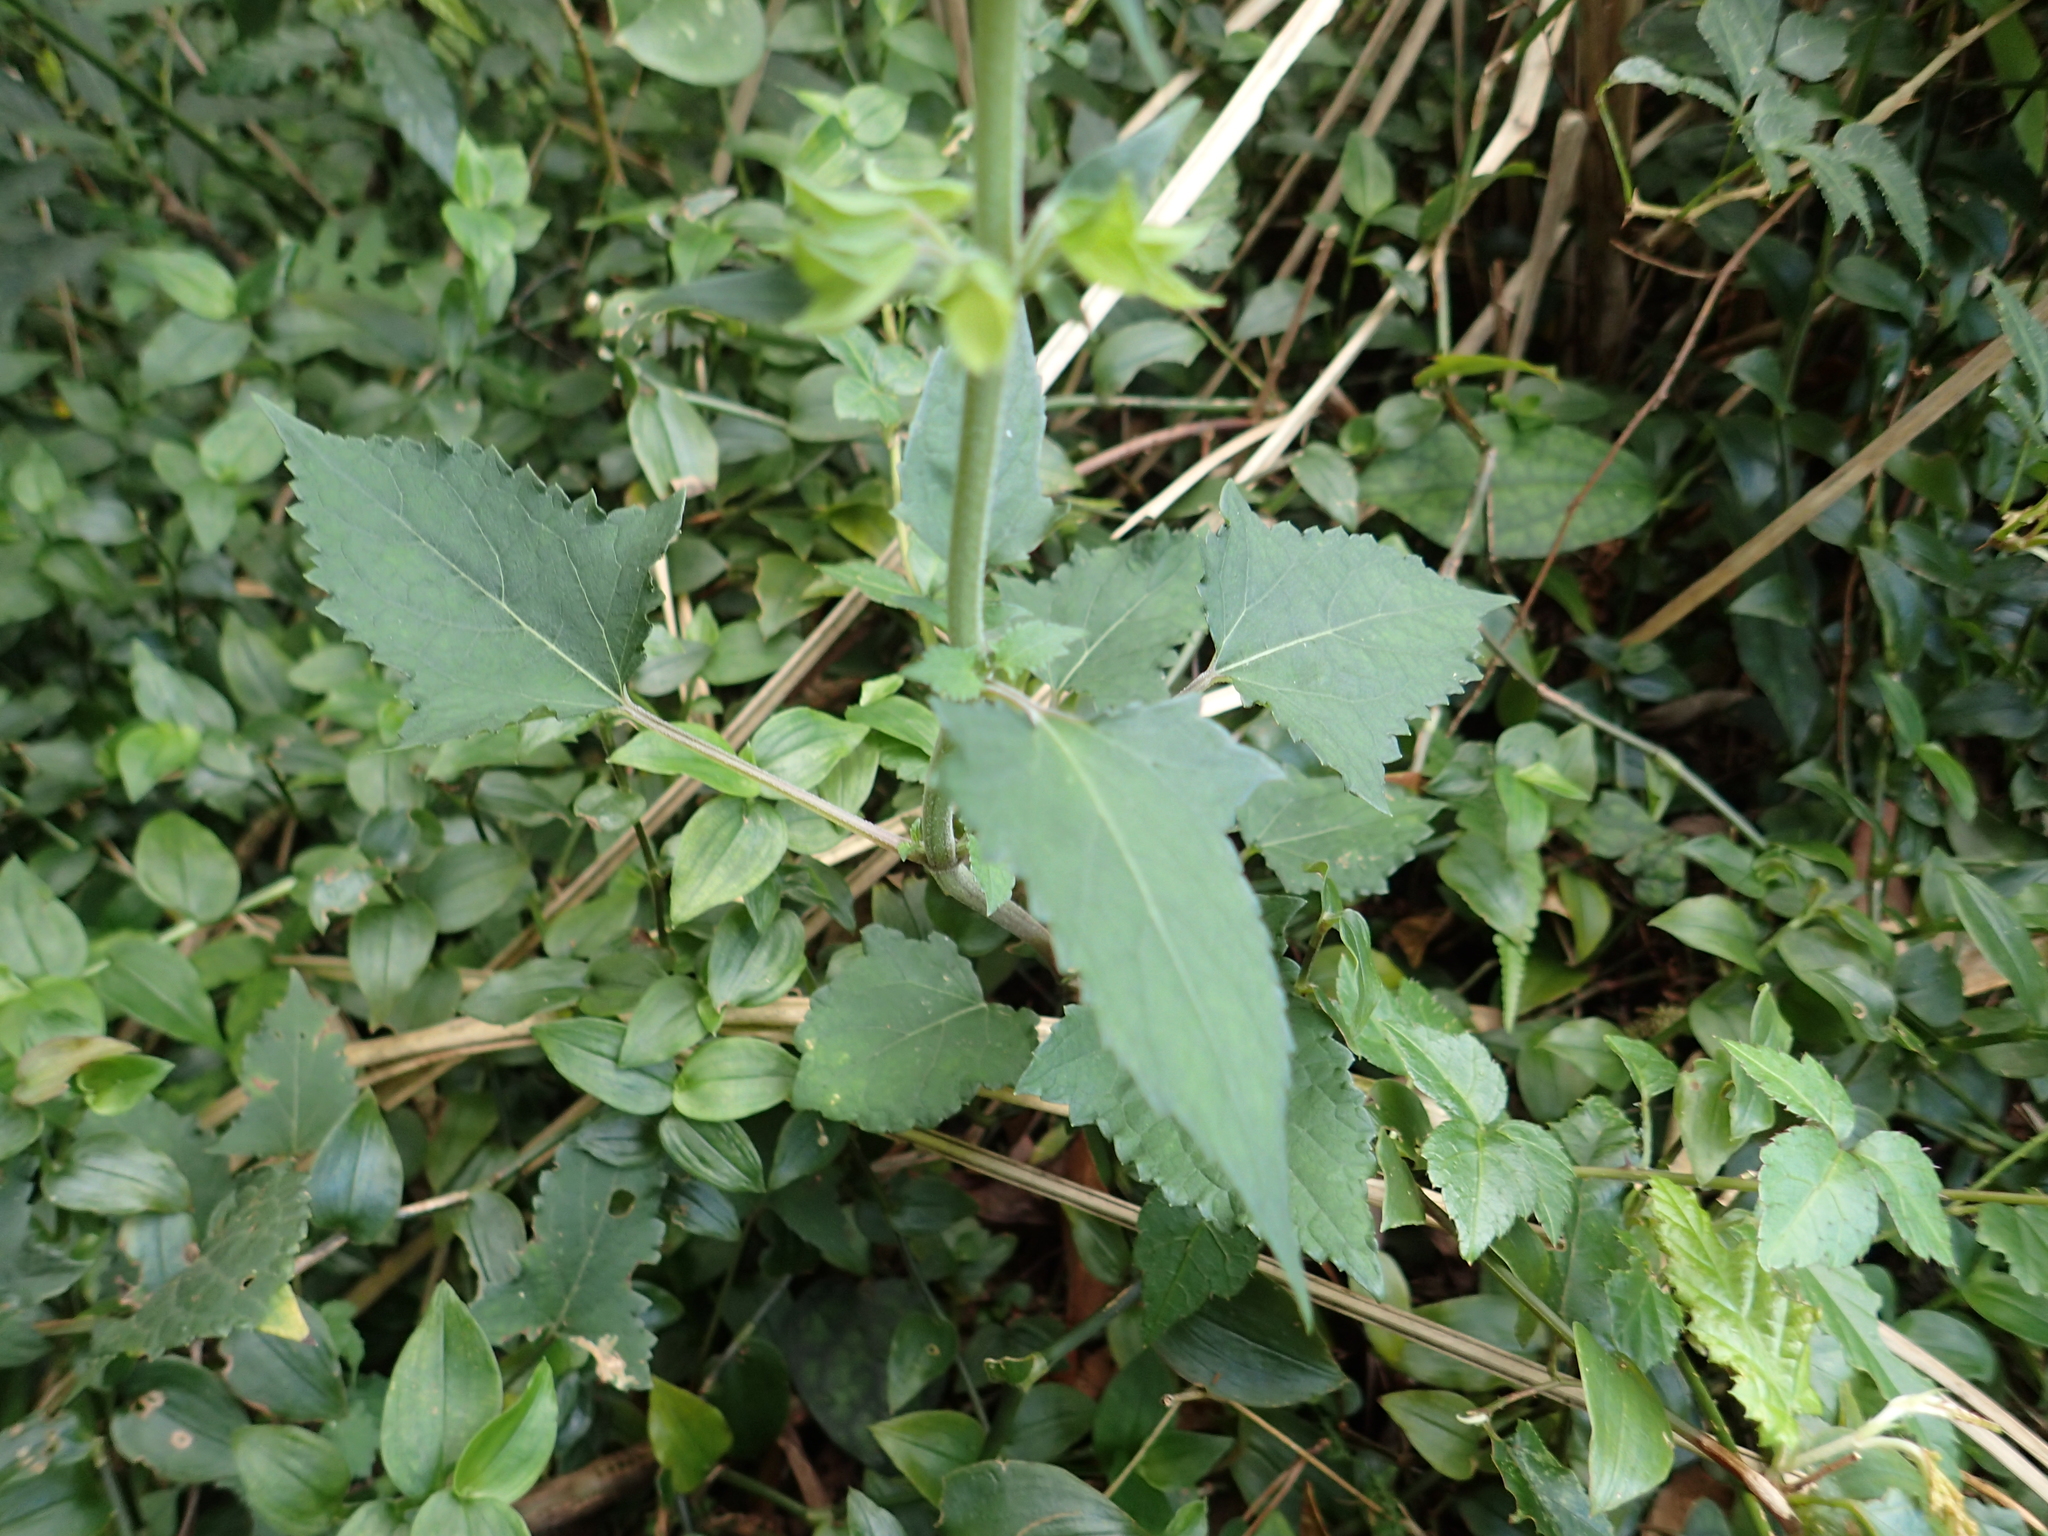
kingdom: Plantae
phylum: Tracheophyta
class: Magnoliopsida
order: Lamiales
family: Plantaginaceae
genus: Veronicastrum
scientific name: Veronicastrum axillare
